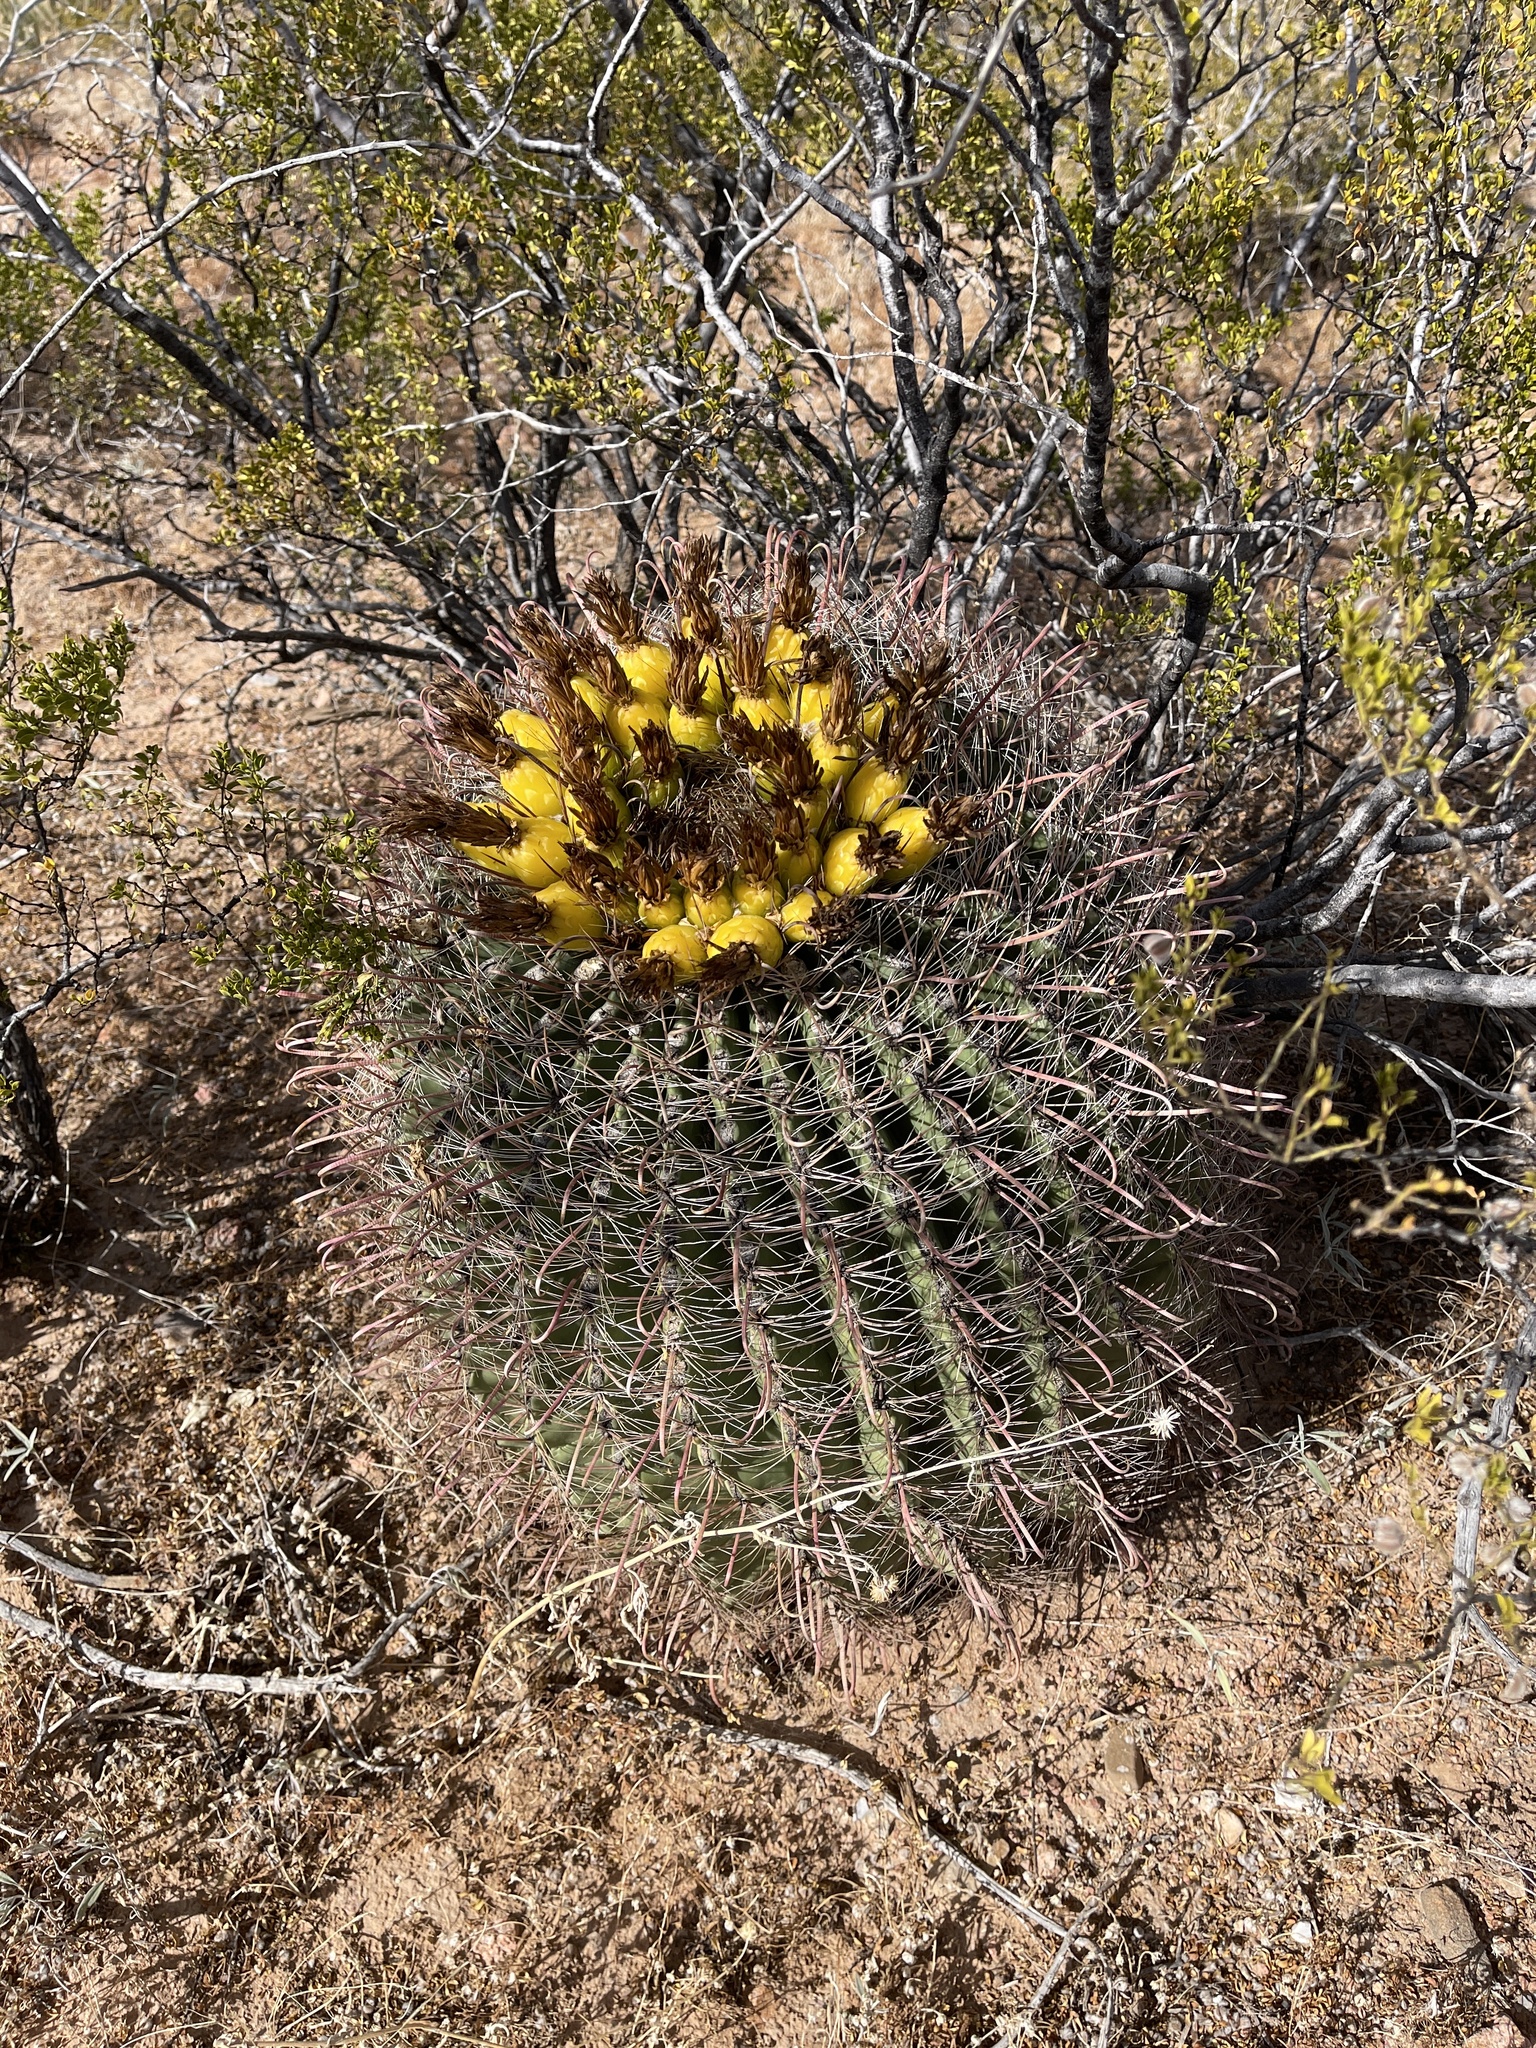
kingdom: Plantae
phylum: Tracheophyta
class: Magnoliopsida
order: Caryophyllales
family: Cactaceae
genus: Ferocactus
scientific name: Ferocactus wislizeni
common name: Candy barrel cactus
